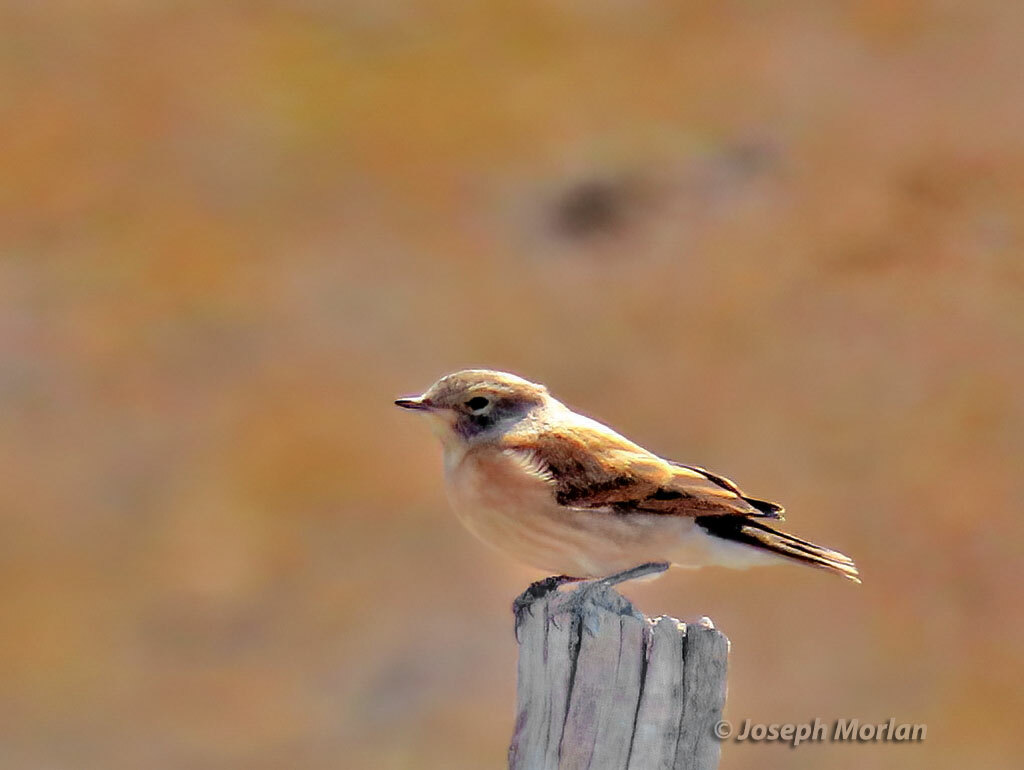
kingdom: Animalia
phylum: Chordata
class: Aves
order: Passeriformes
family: Tyrannidae
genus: Lessonia
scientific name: Lessonia rufa
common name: Austral negrito
